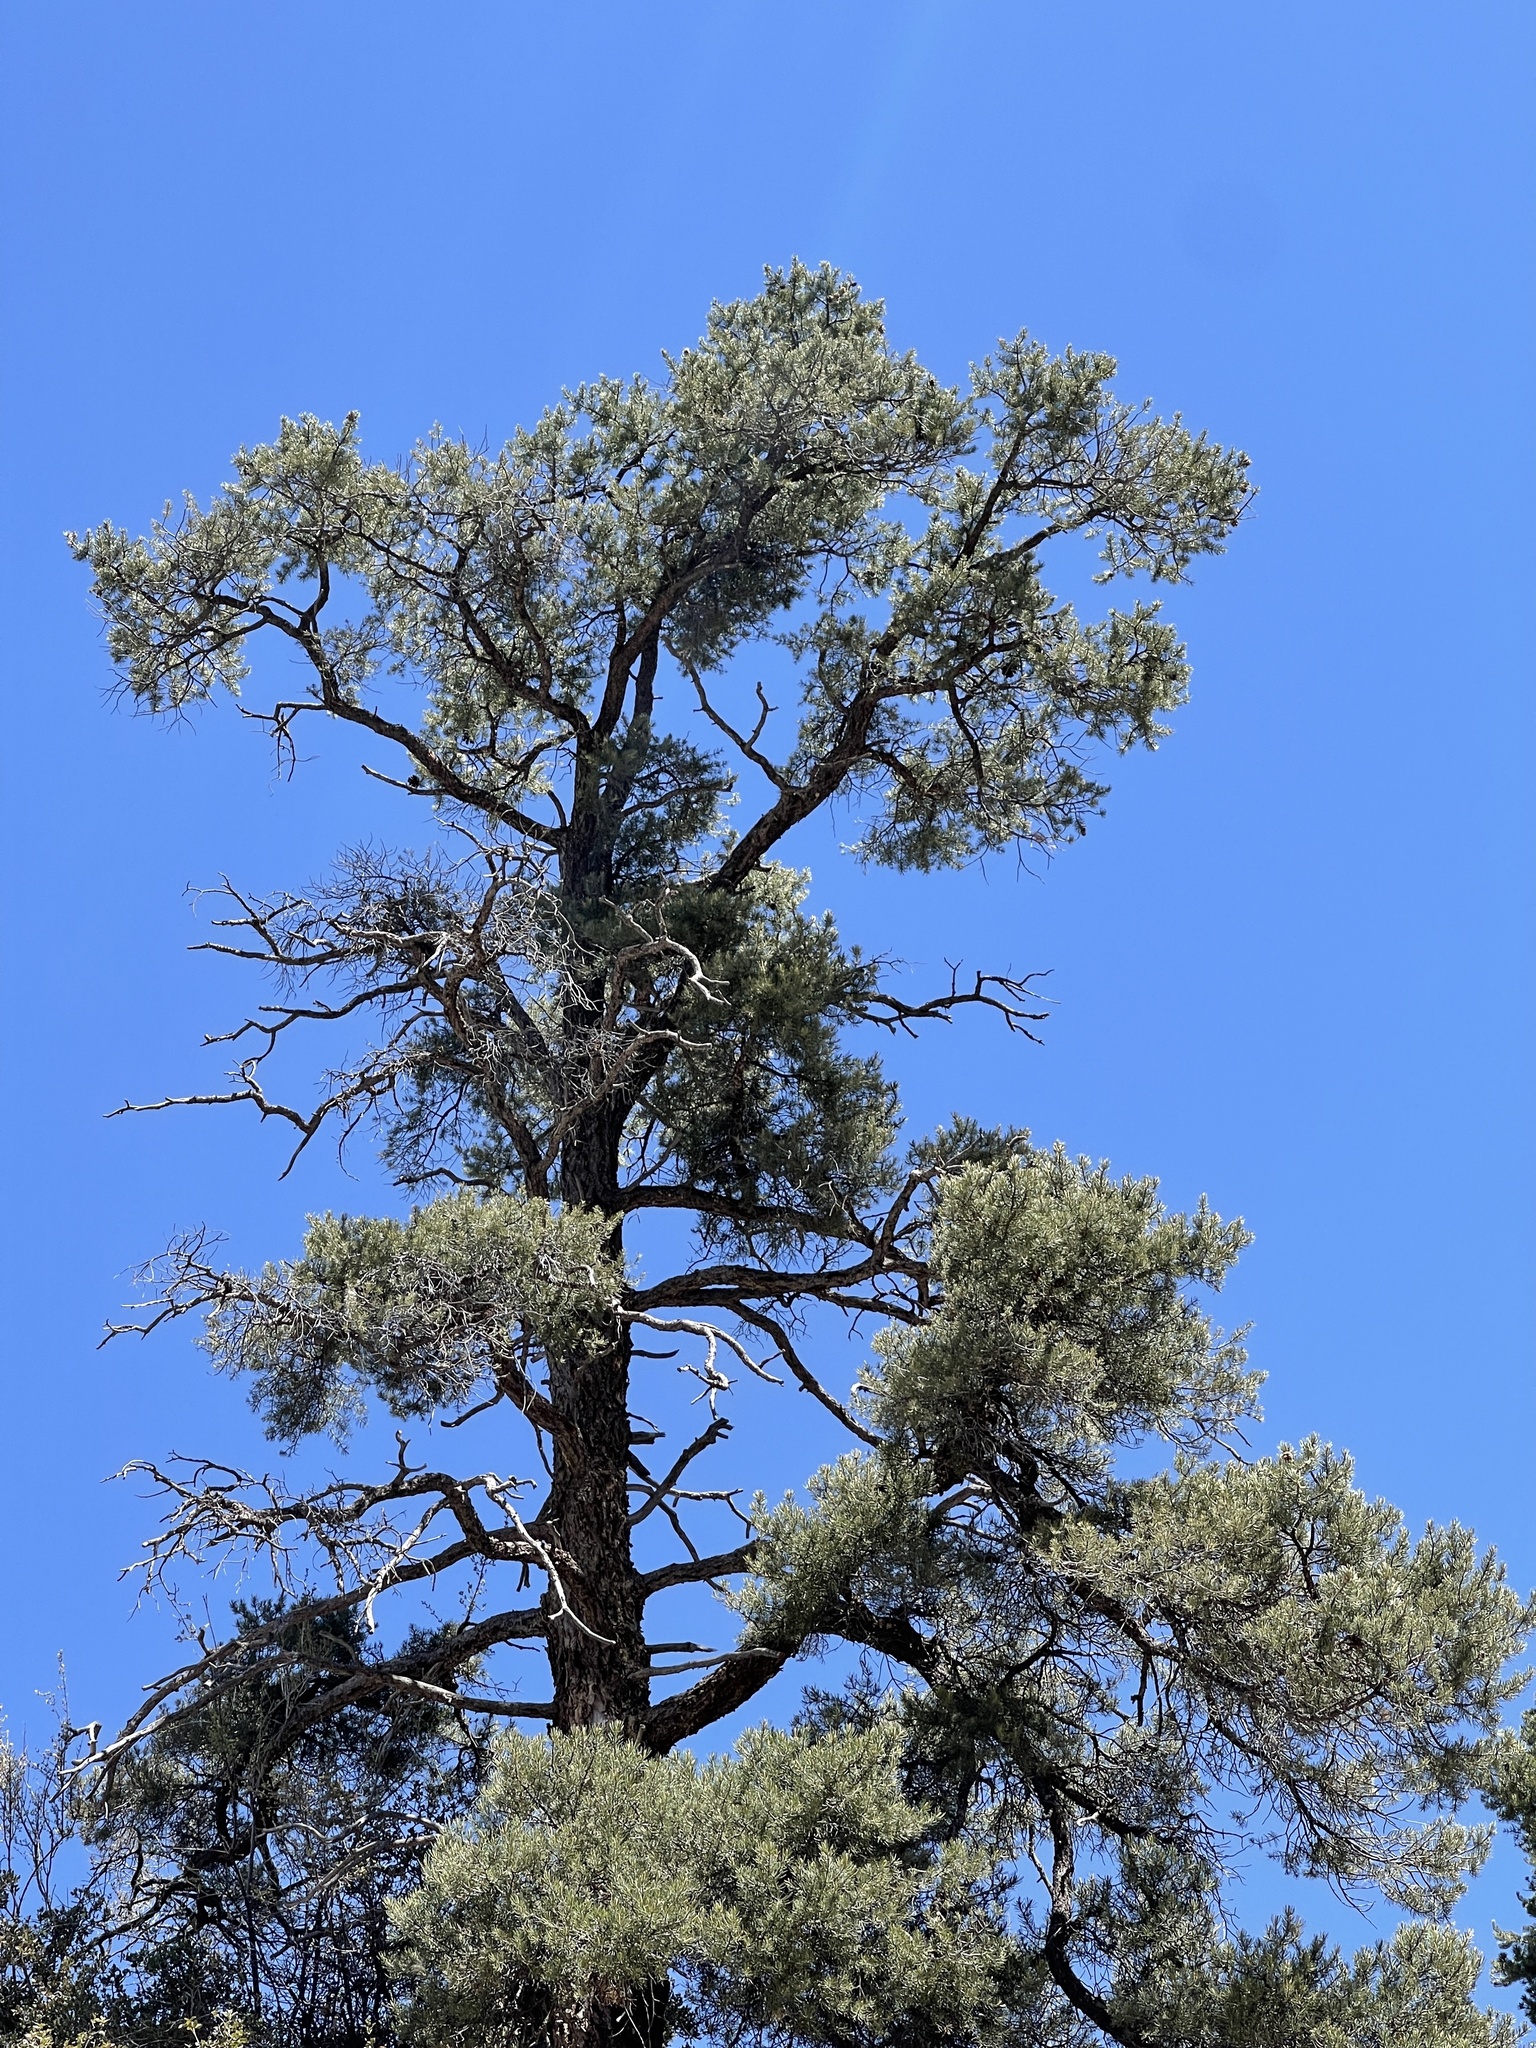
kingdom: Plantae
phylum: Tracheophyta
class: Pinopsida
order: Pinales
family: Pinaceae
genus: Pinus
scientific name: Pinus ponderosa
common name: Western yellow-pine
